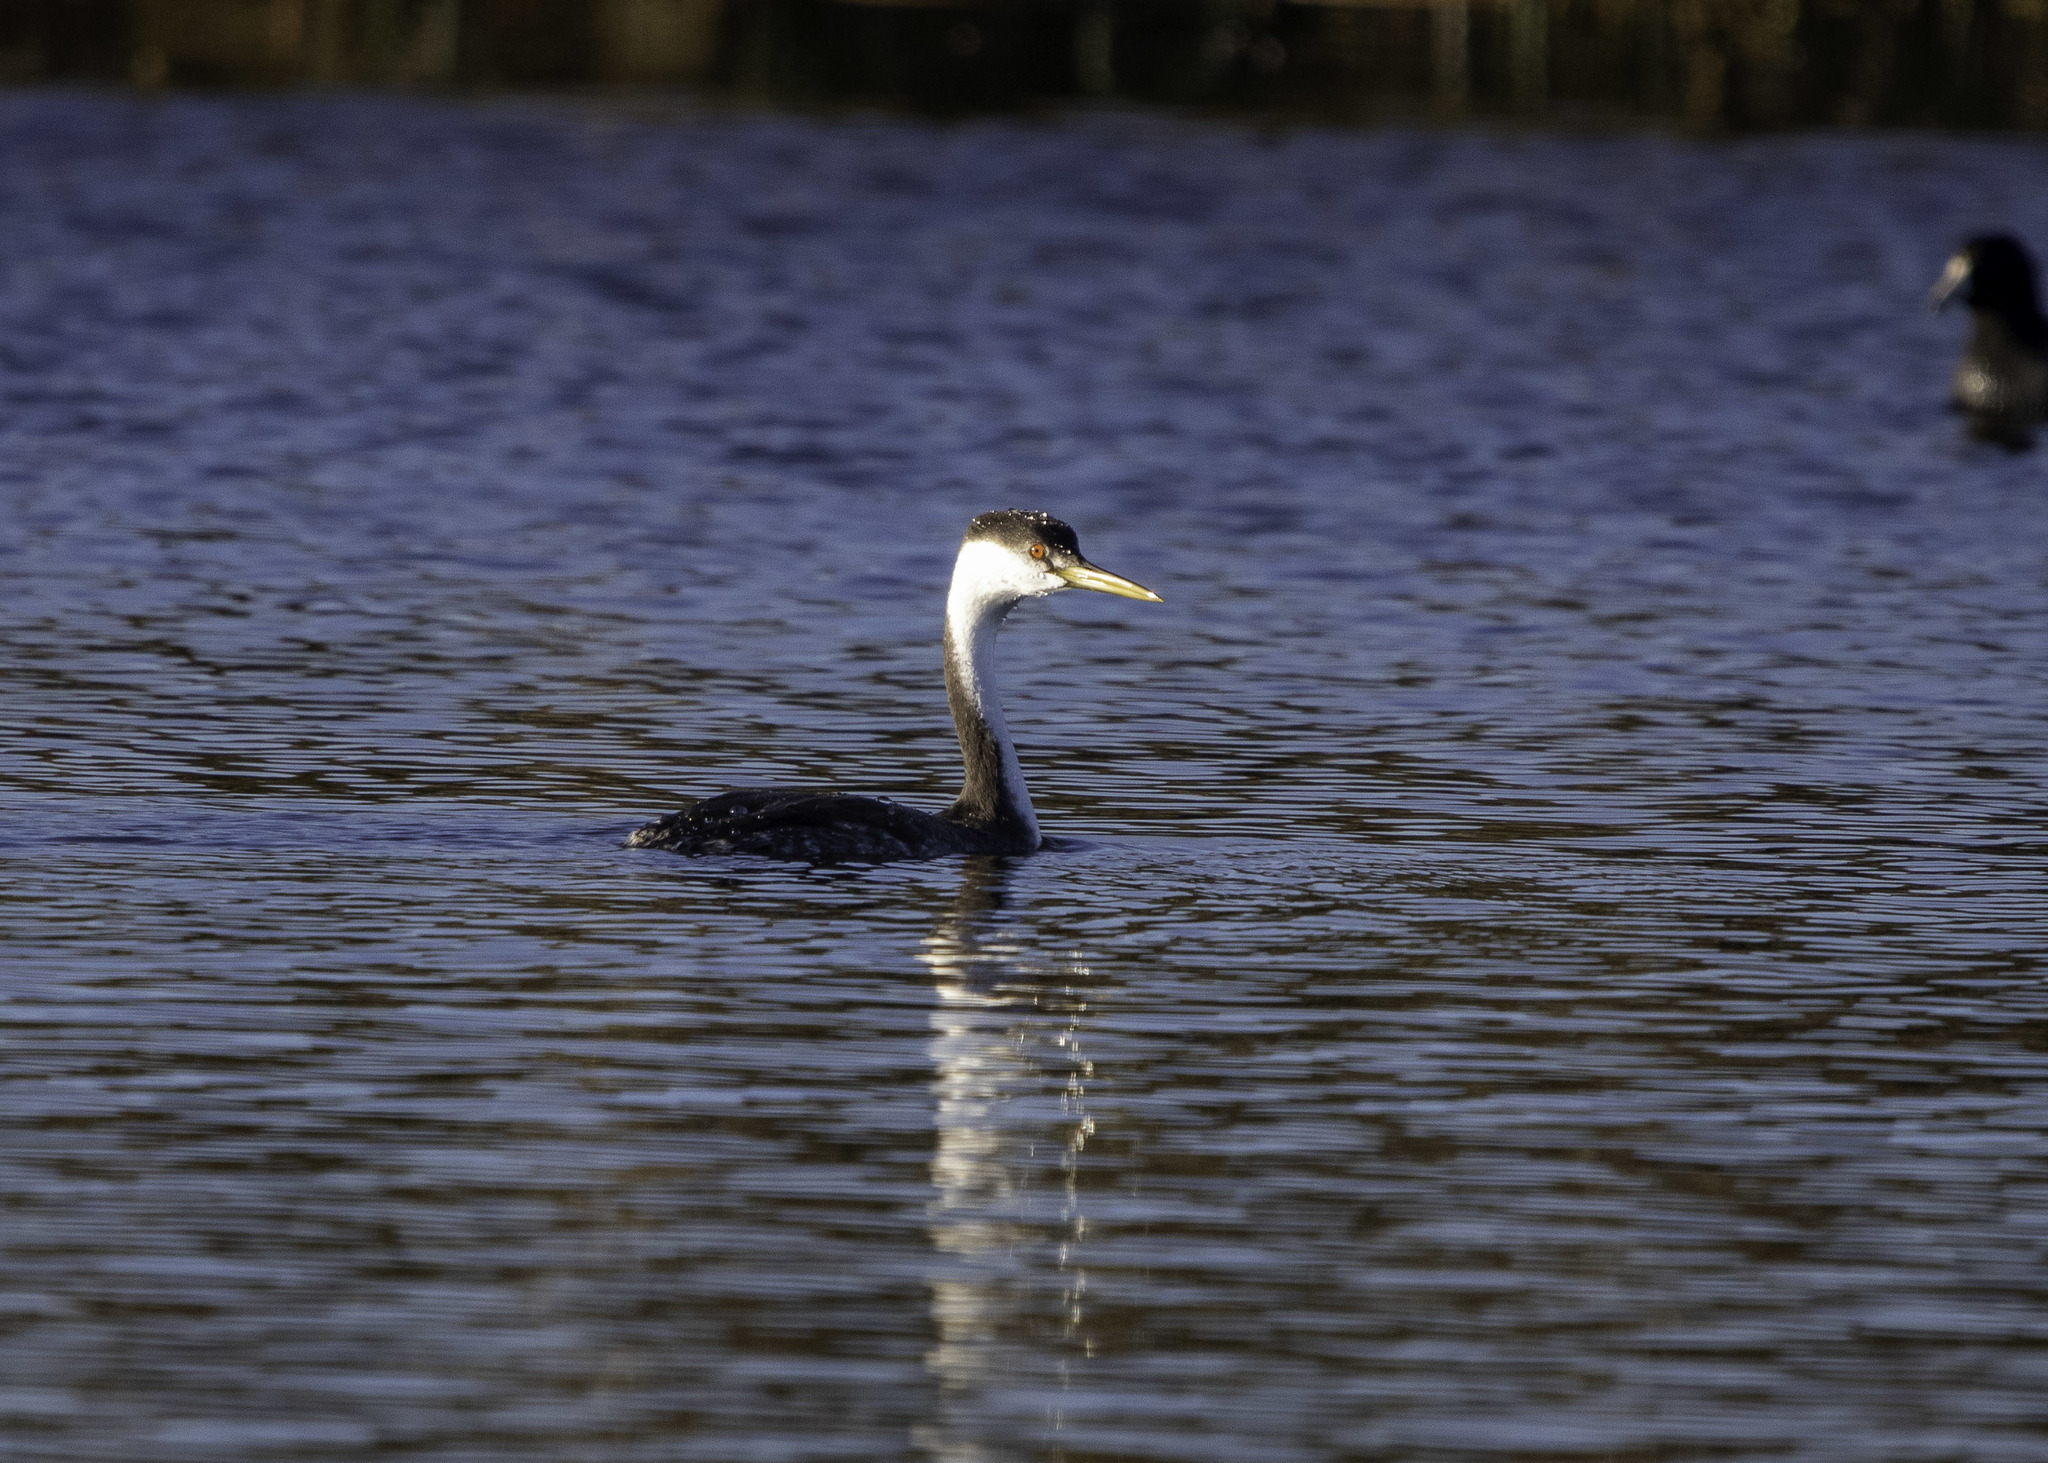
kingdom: Animalia
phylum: Chordata
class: Aves
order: Podicipediformes
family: Podicipedidae
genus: Aechmophorus
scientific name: Aechmophorus occidentalis
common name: Western grebe
